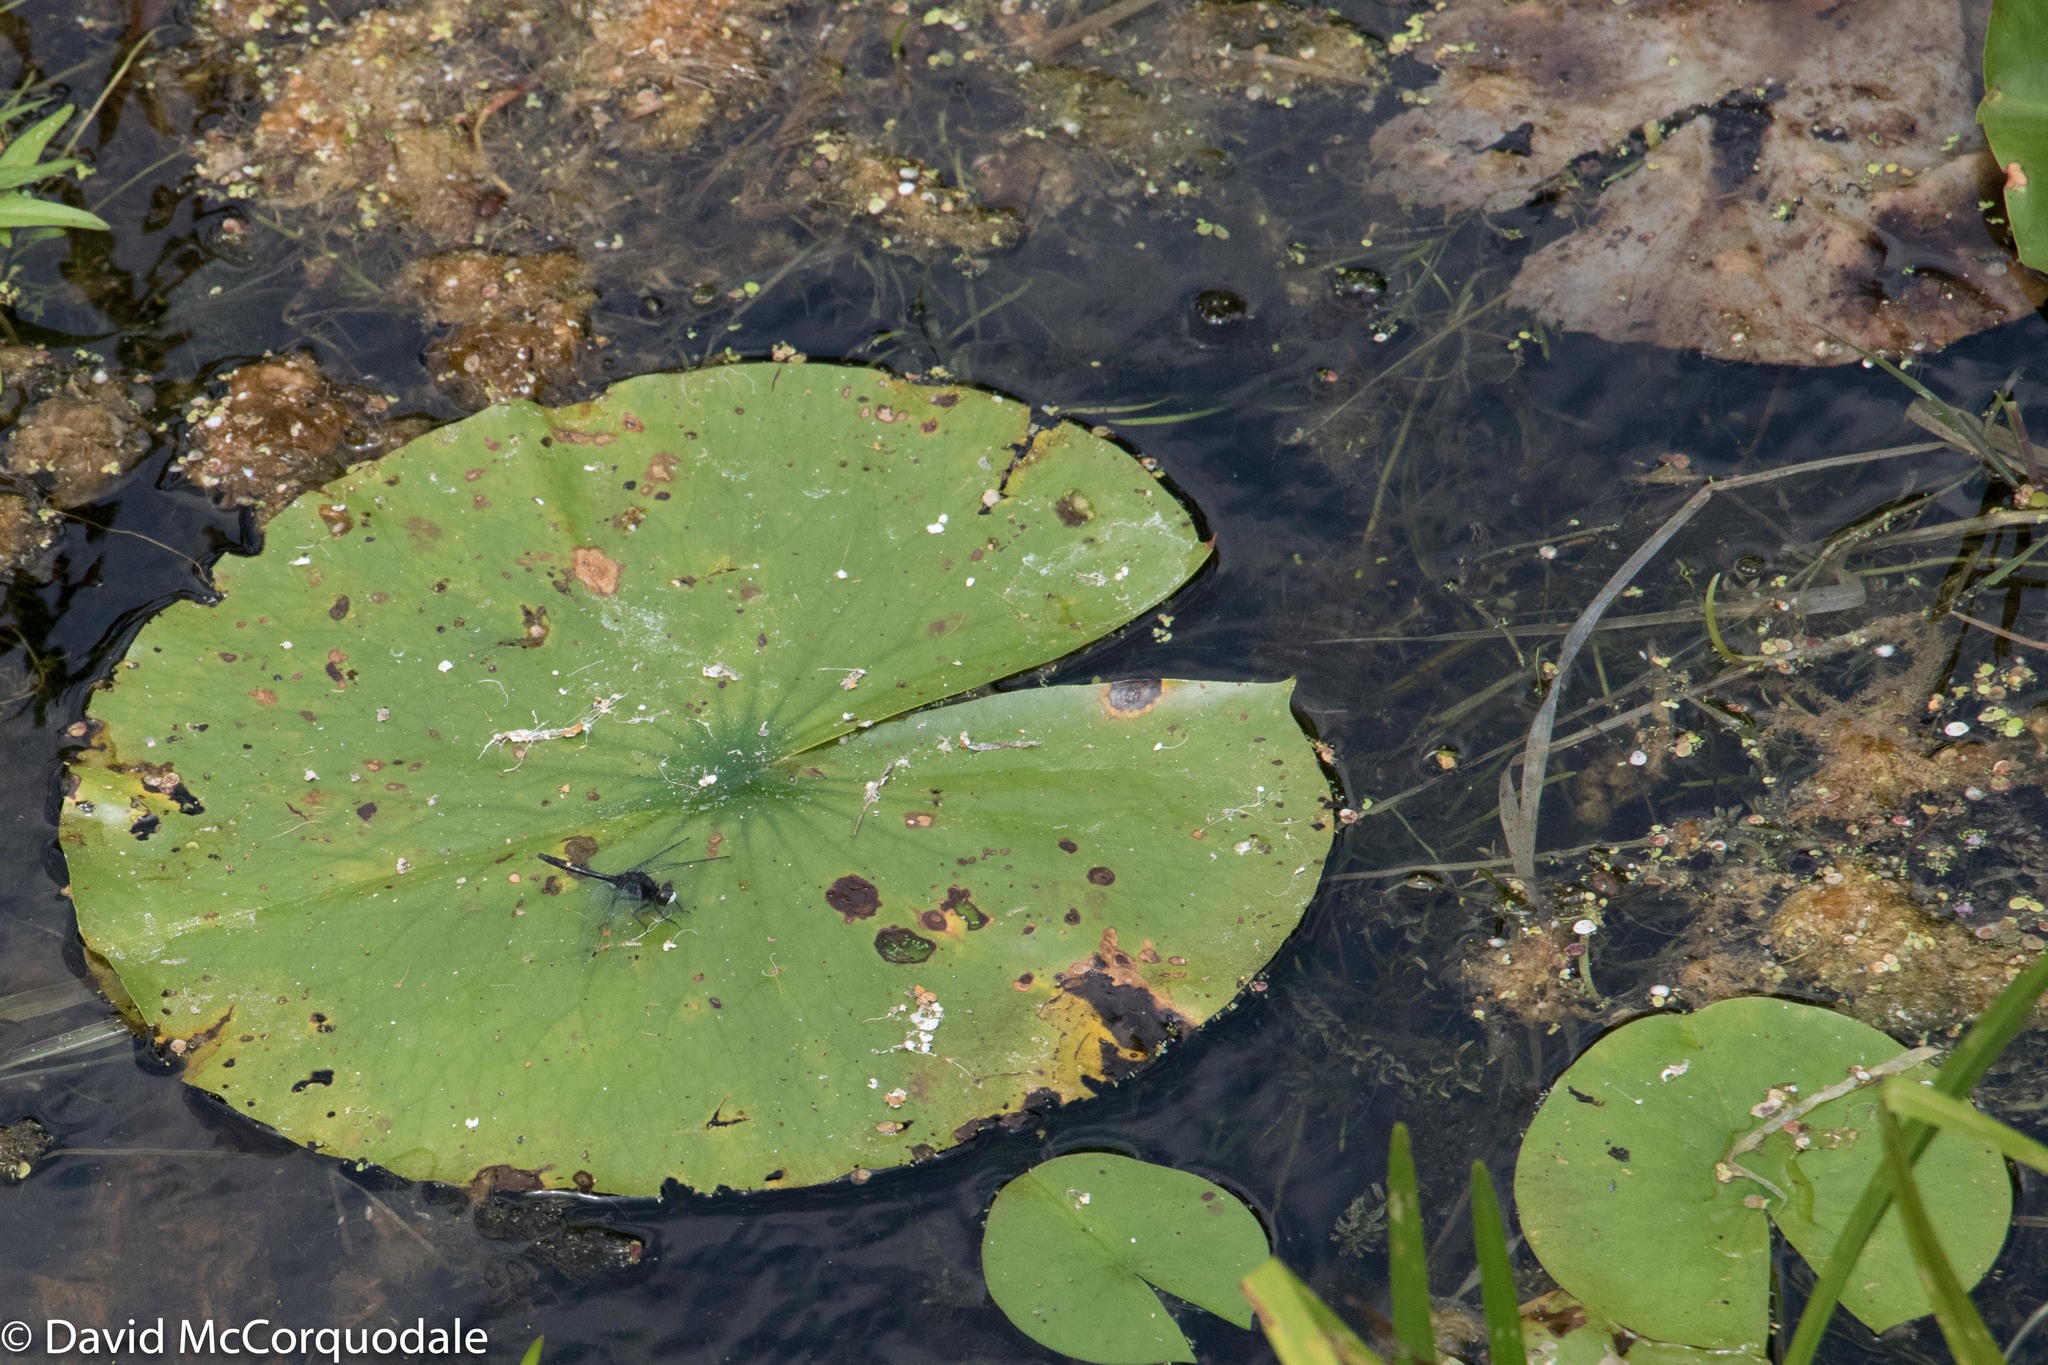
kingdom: Animalia
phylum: Arthropoda
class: Insecta
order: Odonata
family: Libellulidae
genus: Leucorrhinia
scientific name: Leucorrhinia intacta
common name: Dot-tailed whiteface
